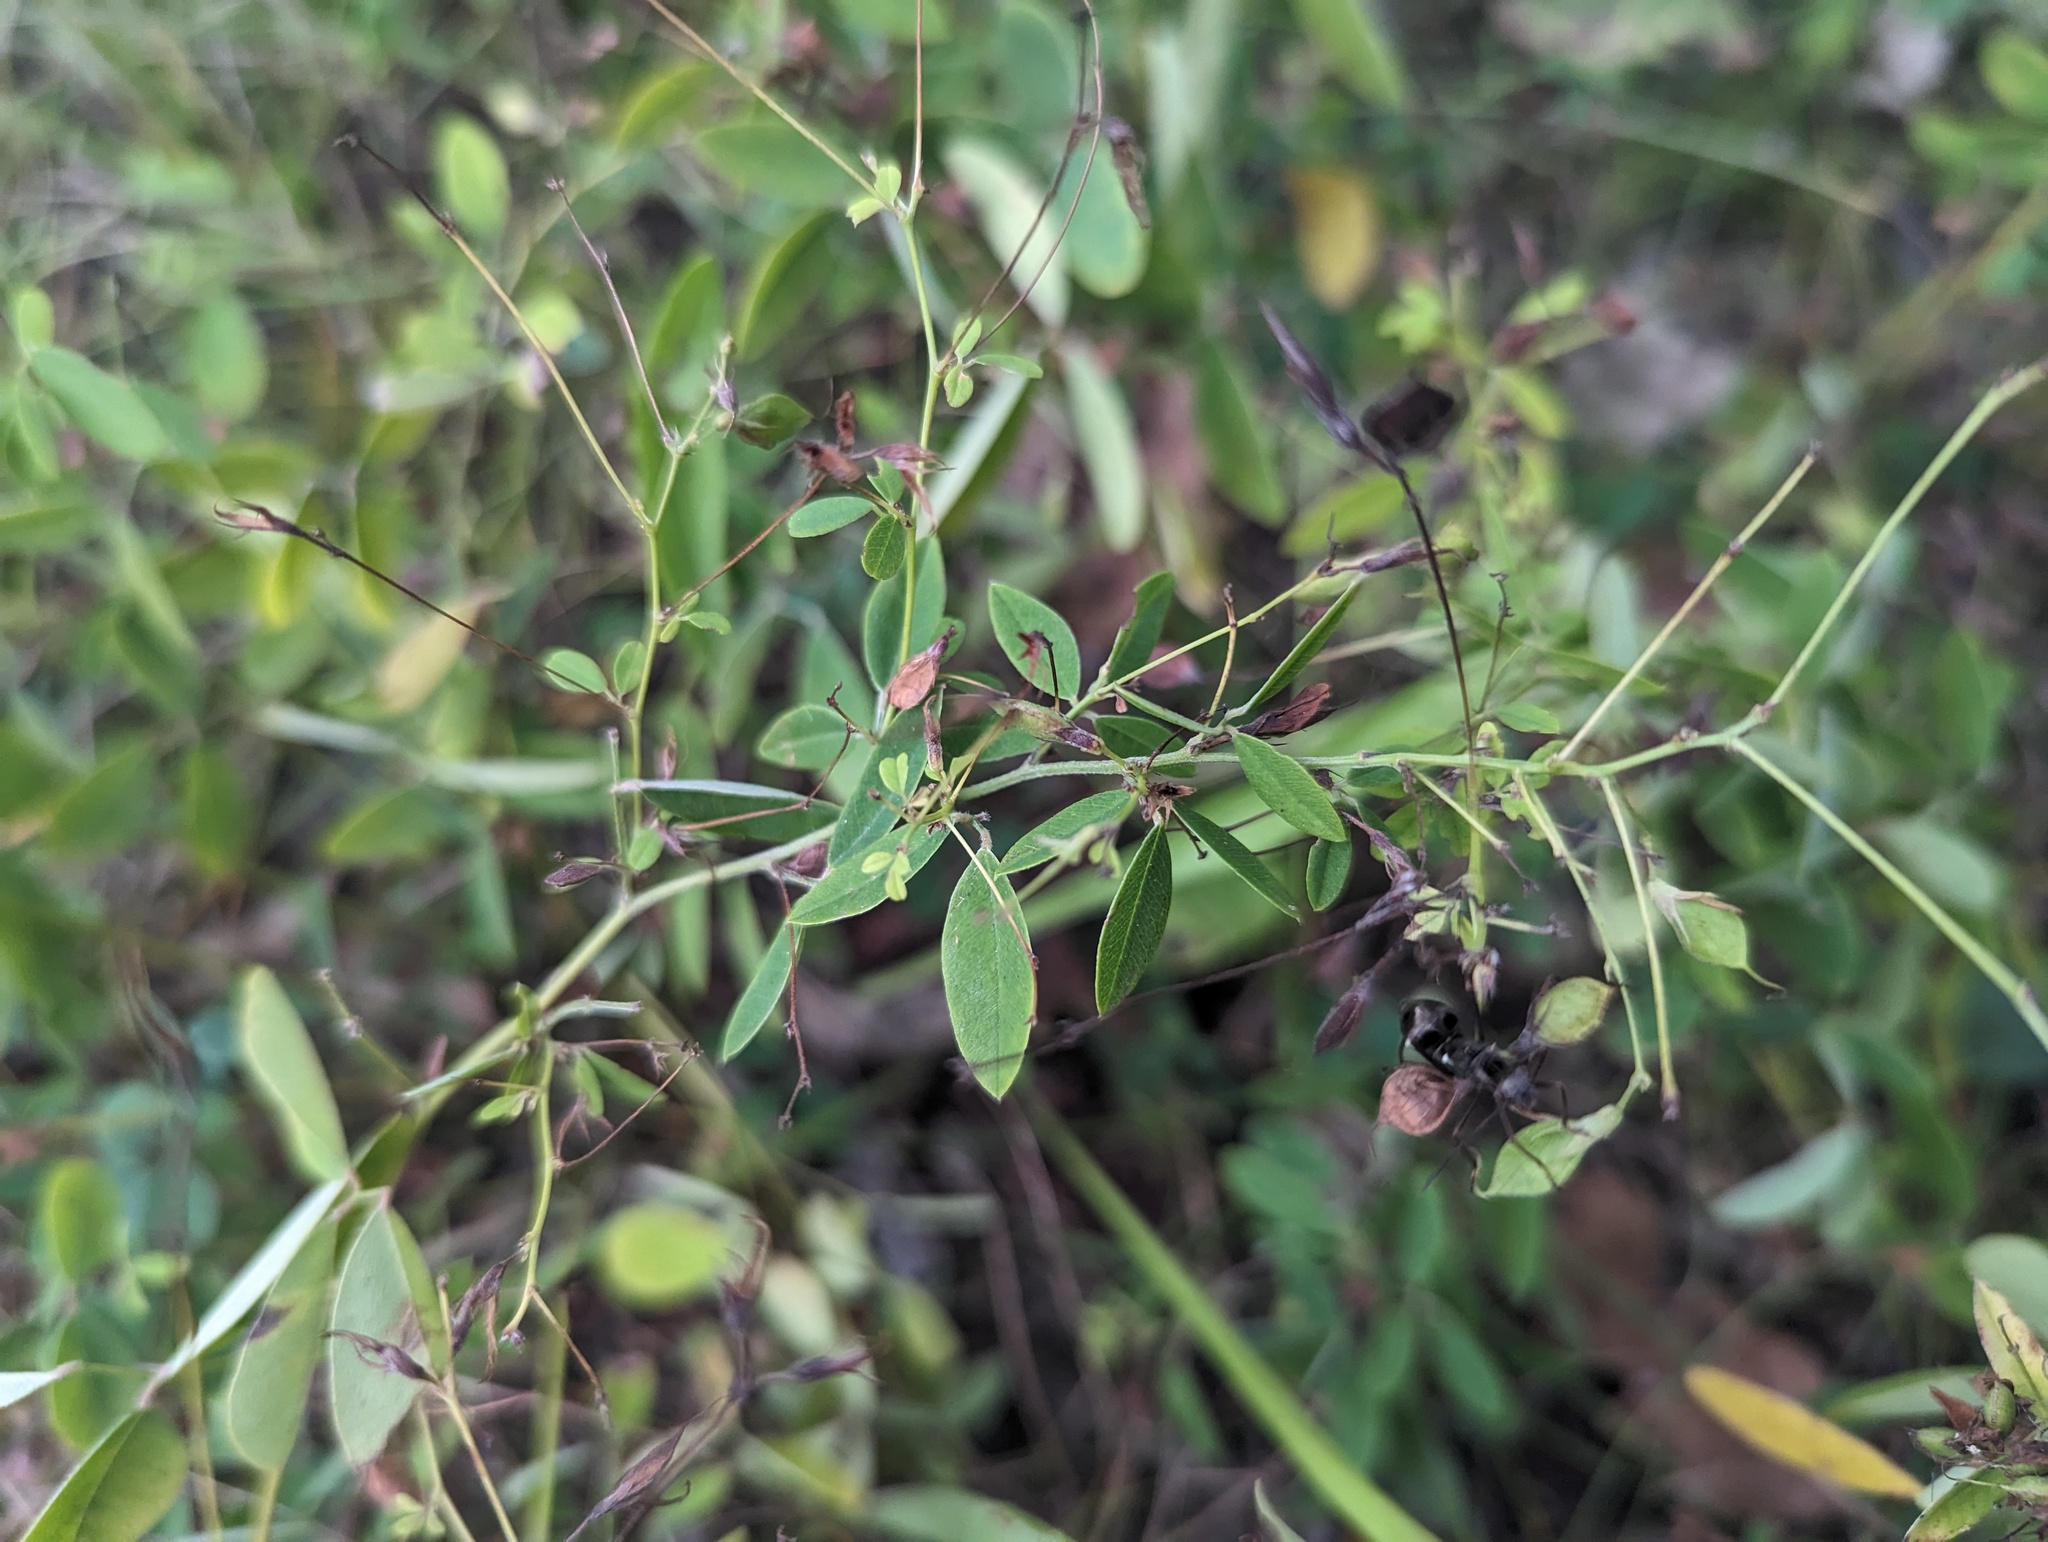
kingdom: Plantae
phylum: Tracheophyta
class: Magnoliopsida
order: Fabales
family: Fabaceae
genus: Lespedeza
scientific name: Lespedeza
